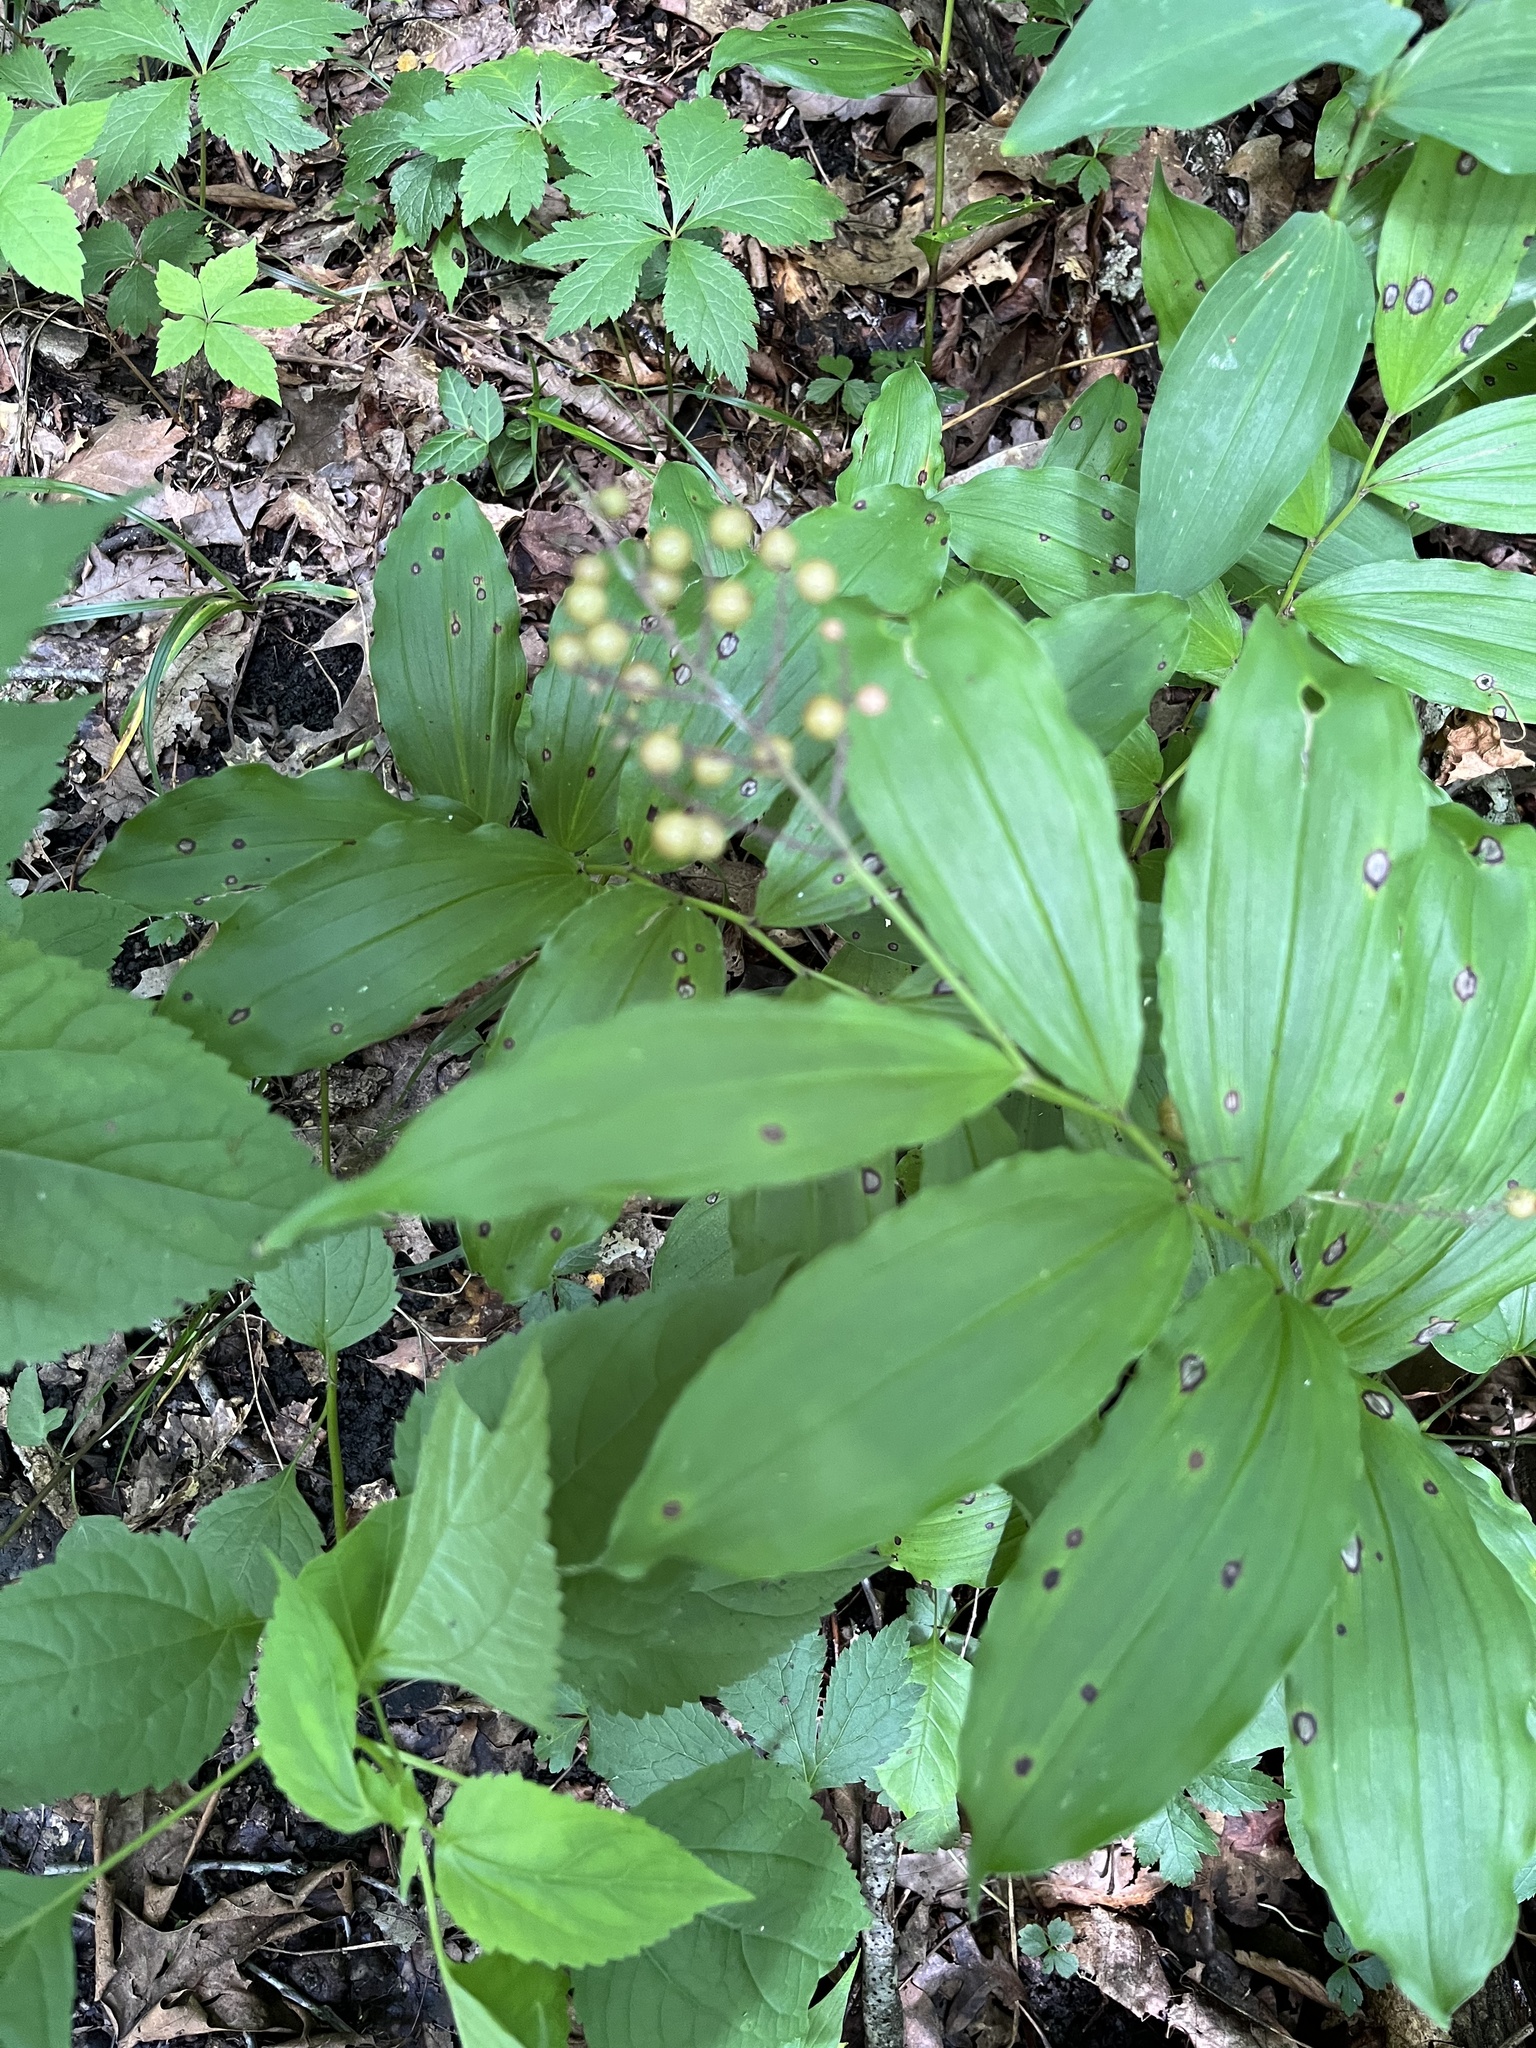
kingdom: Plantae
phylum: Tracheophyta
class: Liliopsida
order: Asparagales
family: Asparagaceae
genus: Maianthemum
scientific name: Maianthemum racemosum
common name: False spikenard
